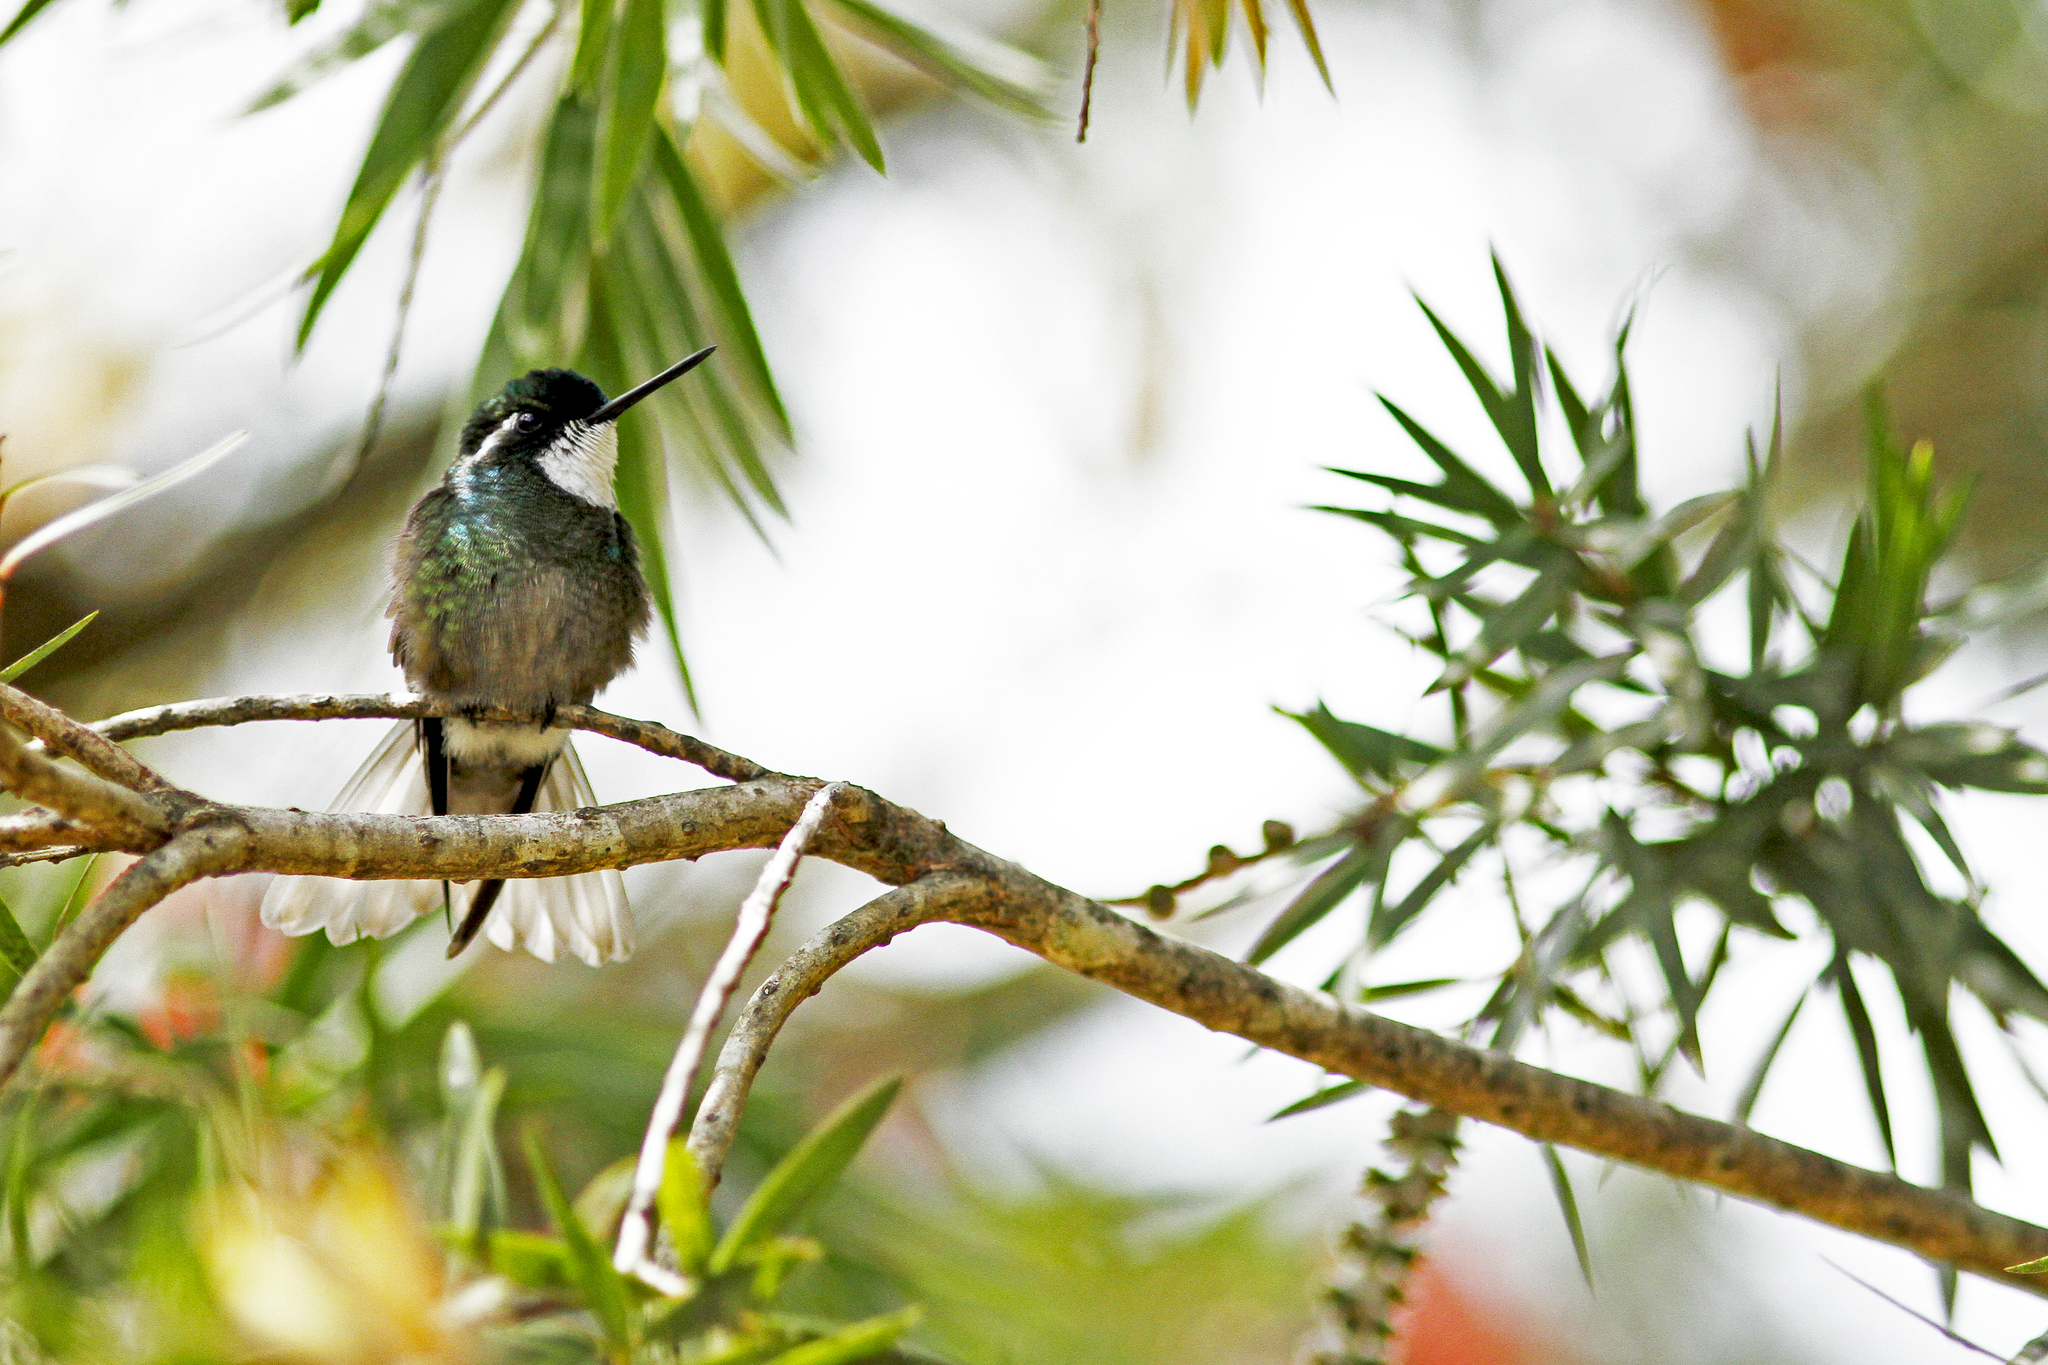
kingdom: Animalia
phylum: Chordata
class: Aves
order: Apodiformes
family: Trochilidae
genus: Lampornis
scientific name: Lampornis castaneoventris
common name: White-throated mountain-gem
